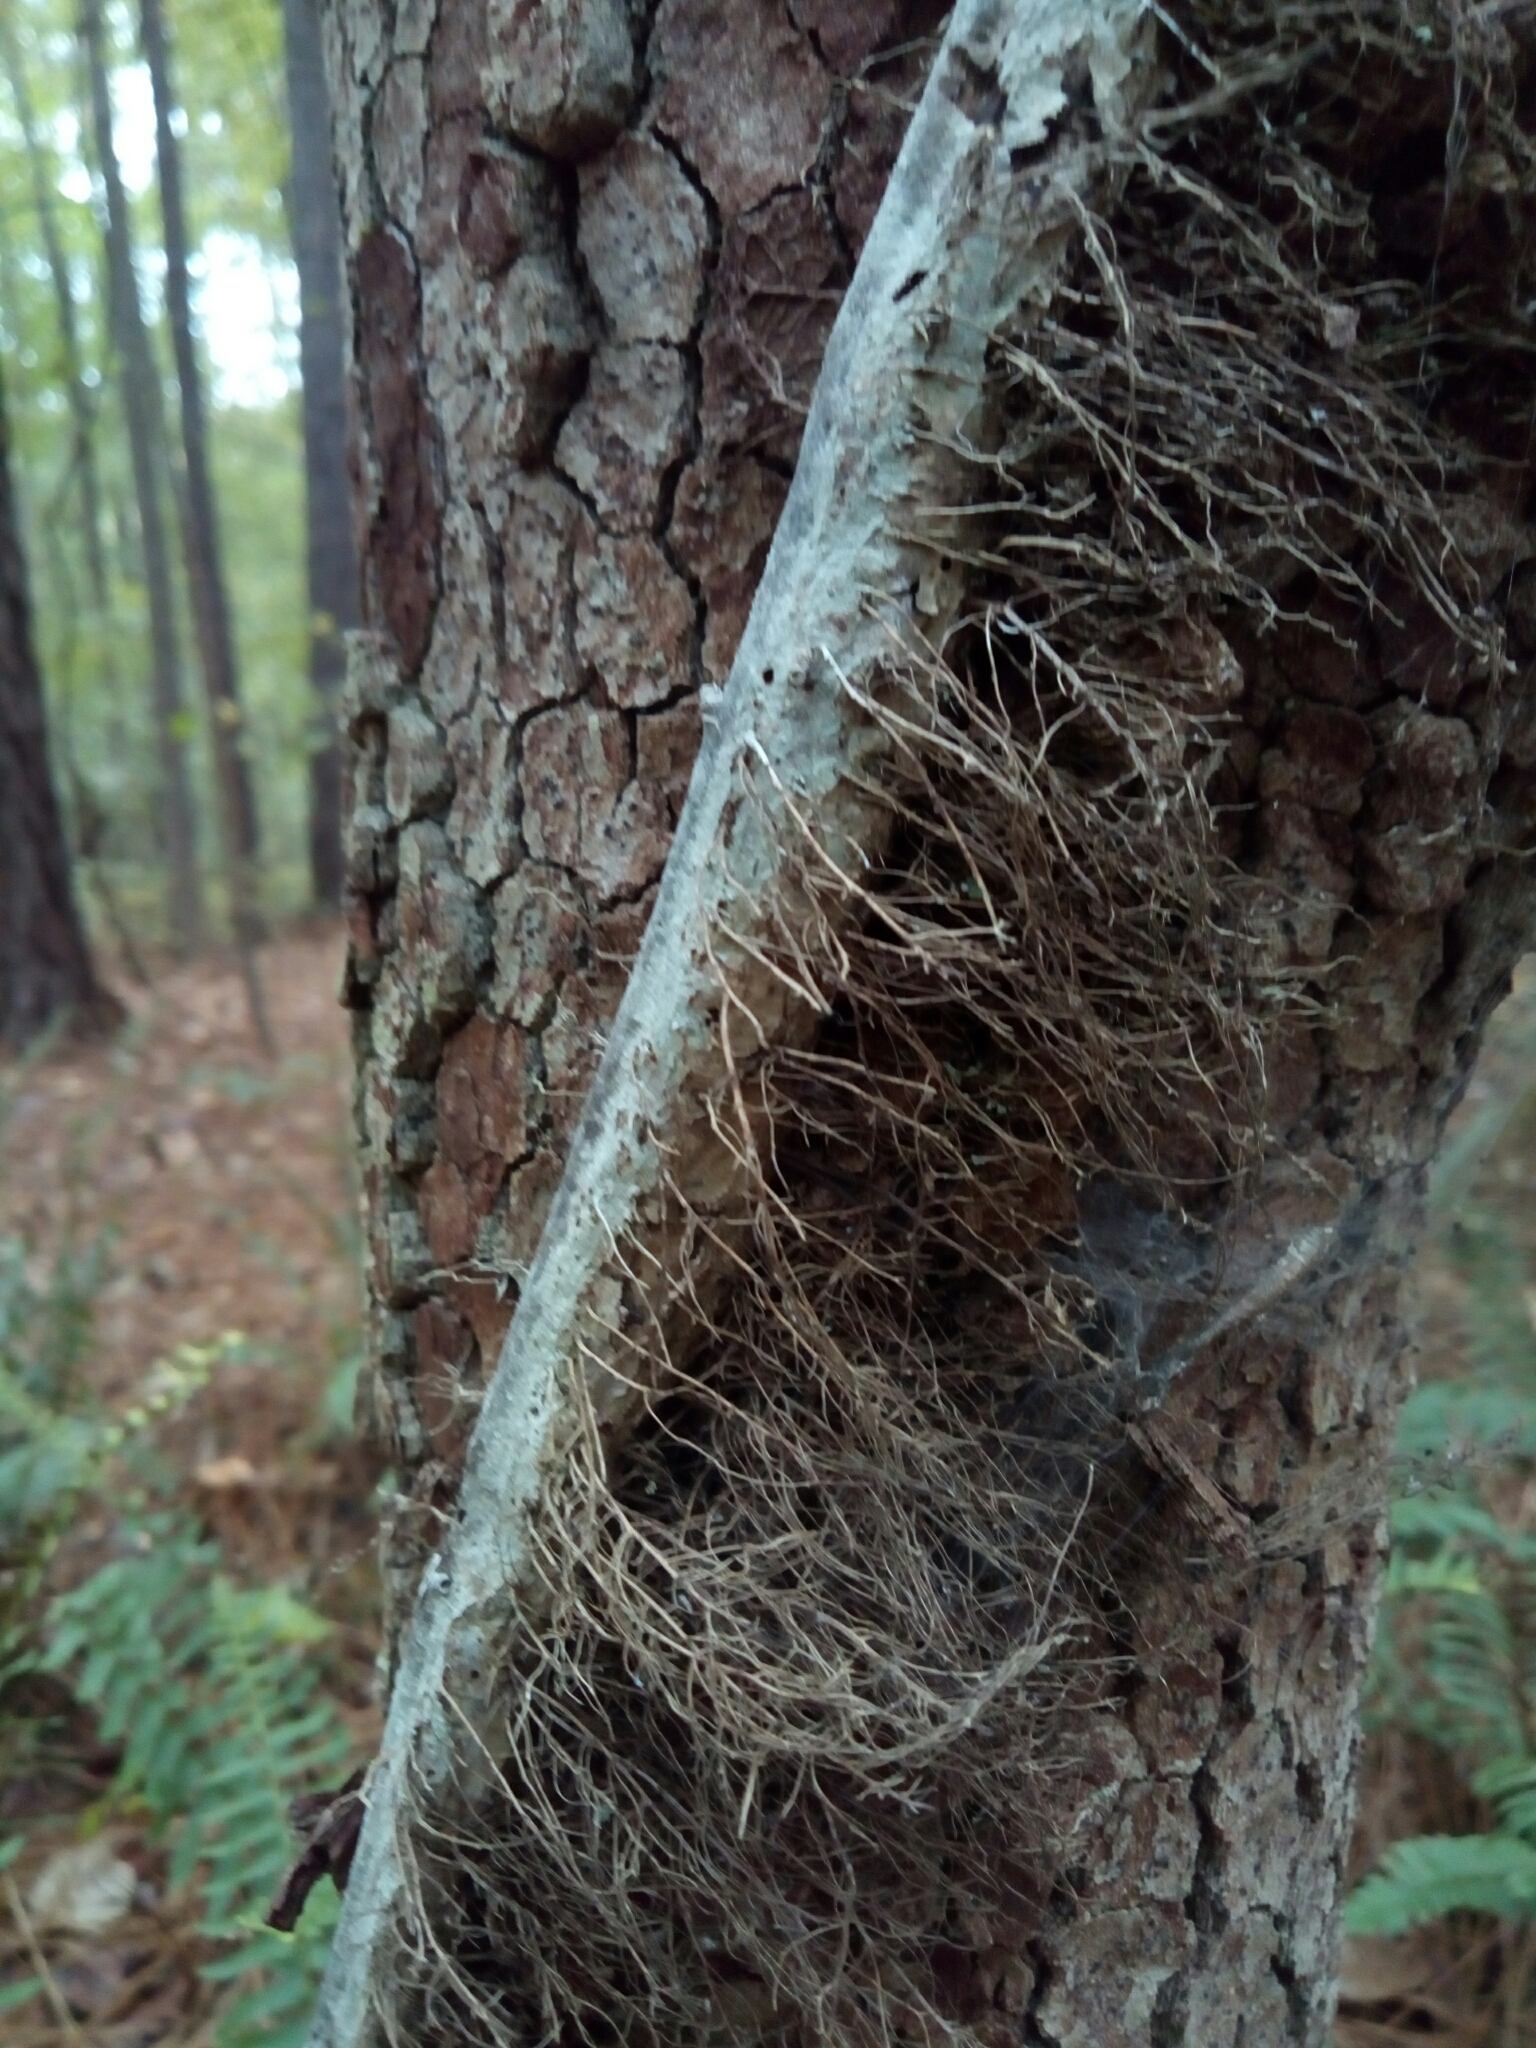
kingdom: Plantae
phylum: Tracheophyta
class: Magnoliopsida
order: Sapindales
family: Anacardiaceae
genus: Toxicodendron
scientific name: Toxicodendron radicans
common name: Poison ivy
